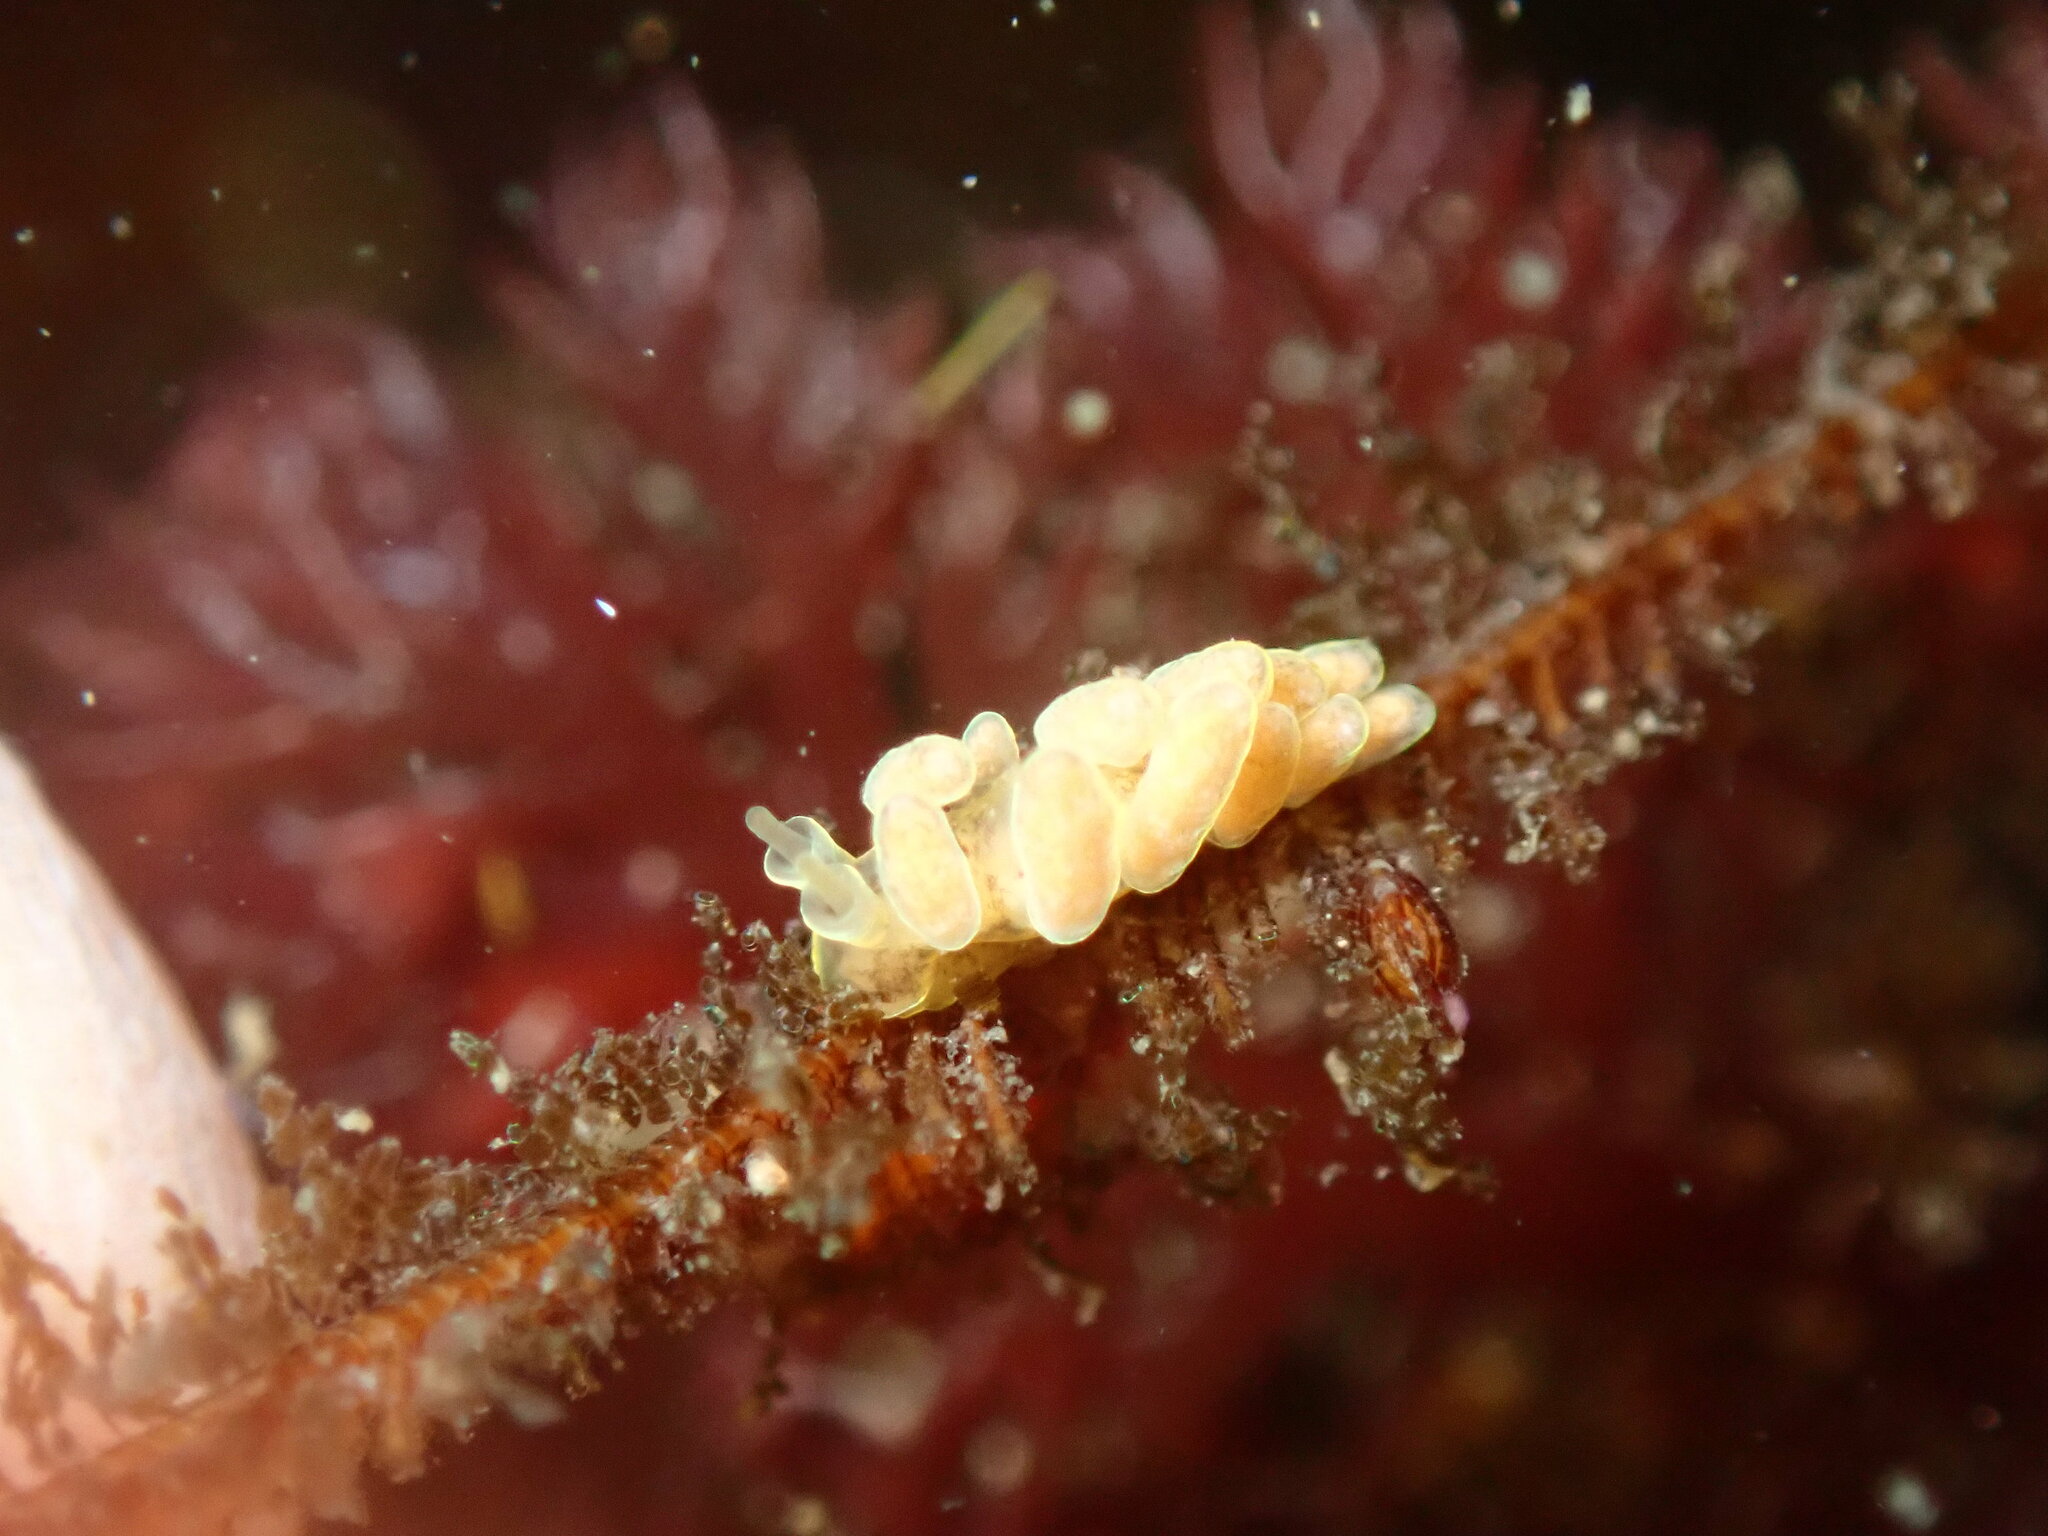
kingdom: Animalia
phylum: Mollusca
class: Gastropoda
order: Nudibranchia
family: Dotidae
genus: Doto
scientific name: Doto columbiana
